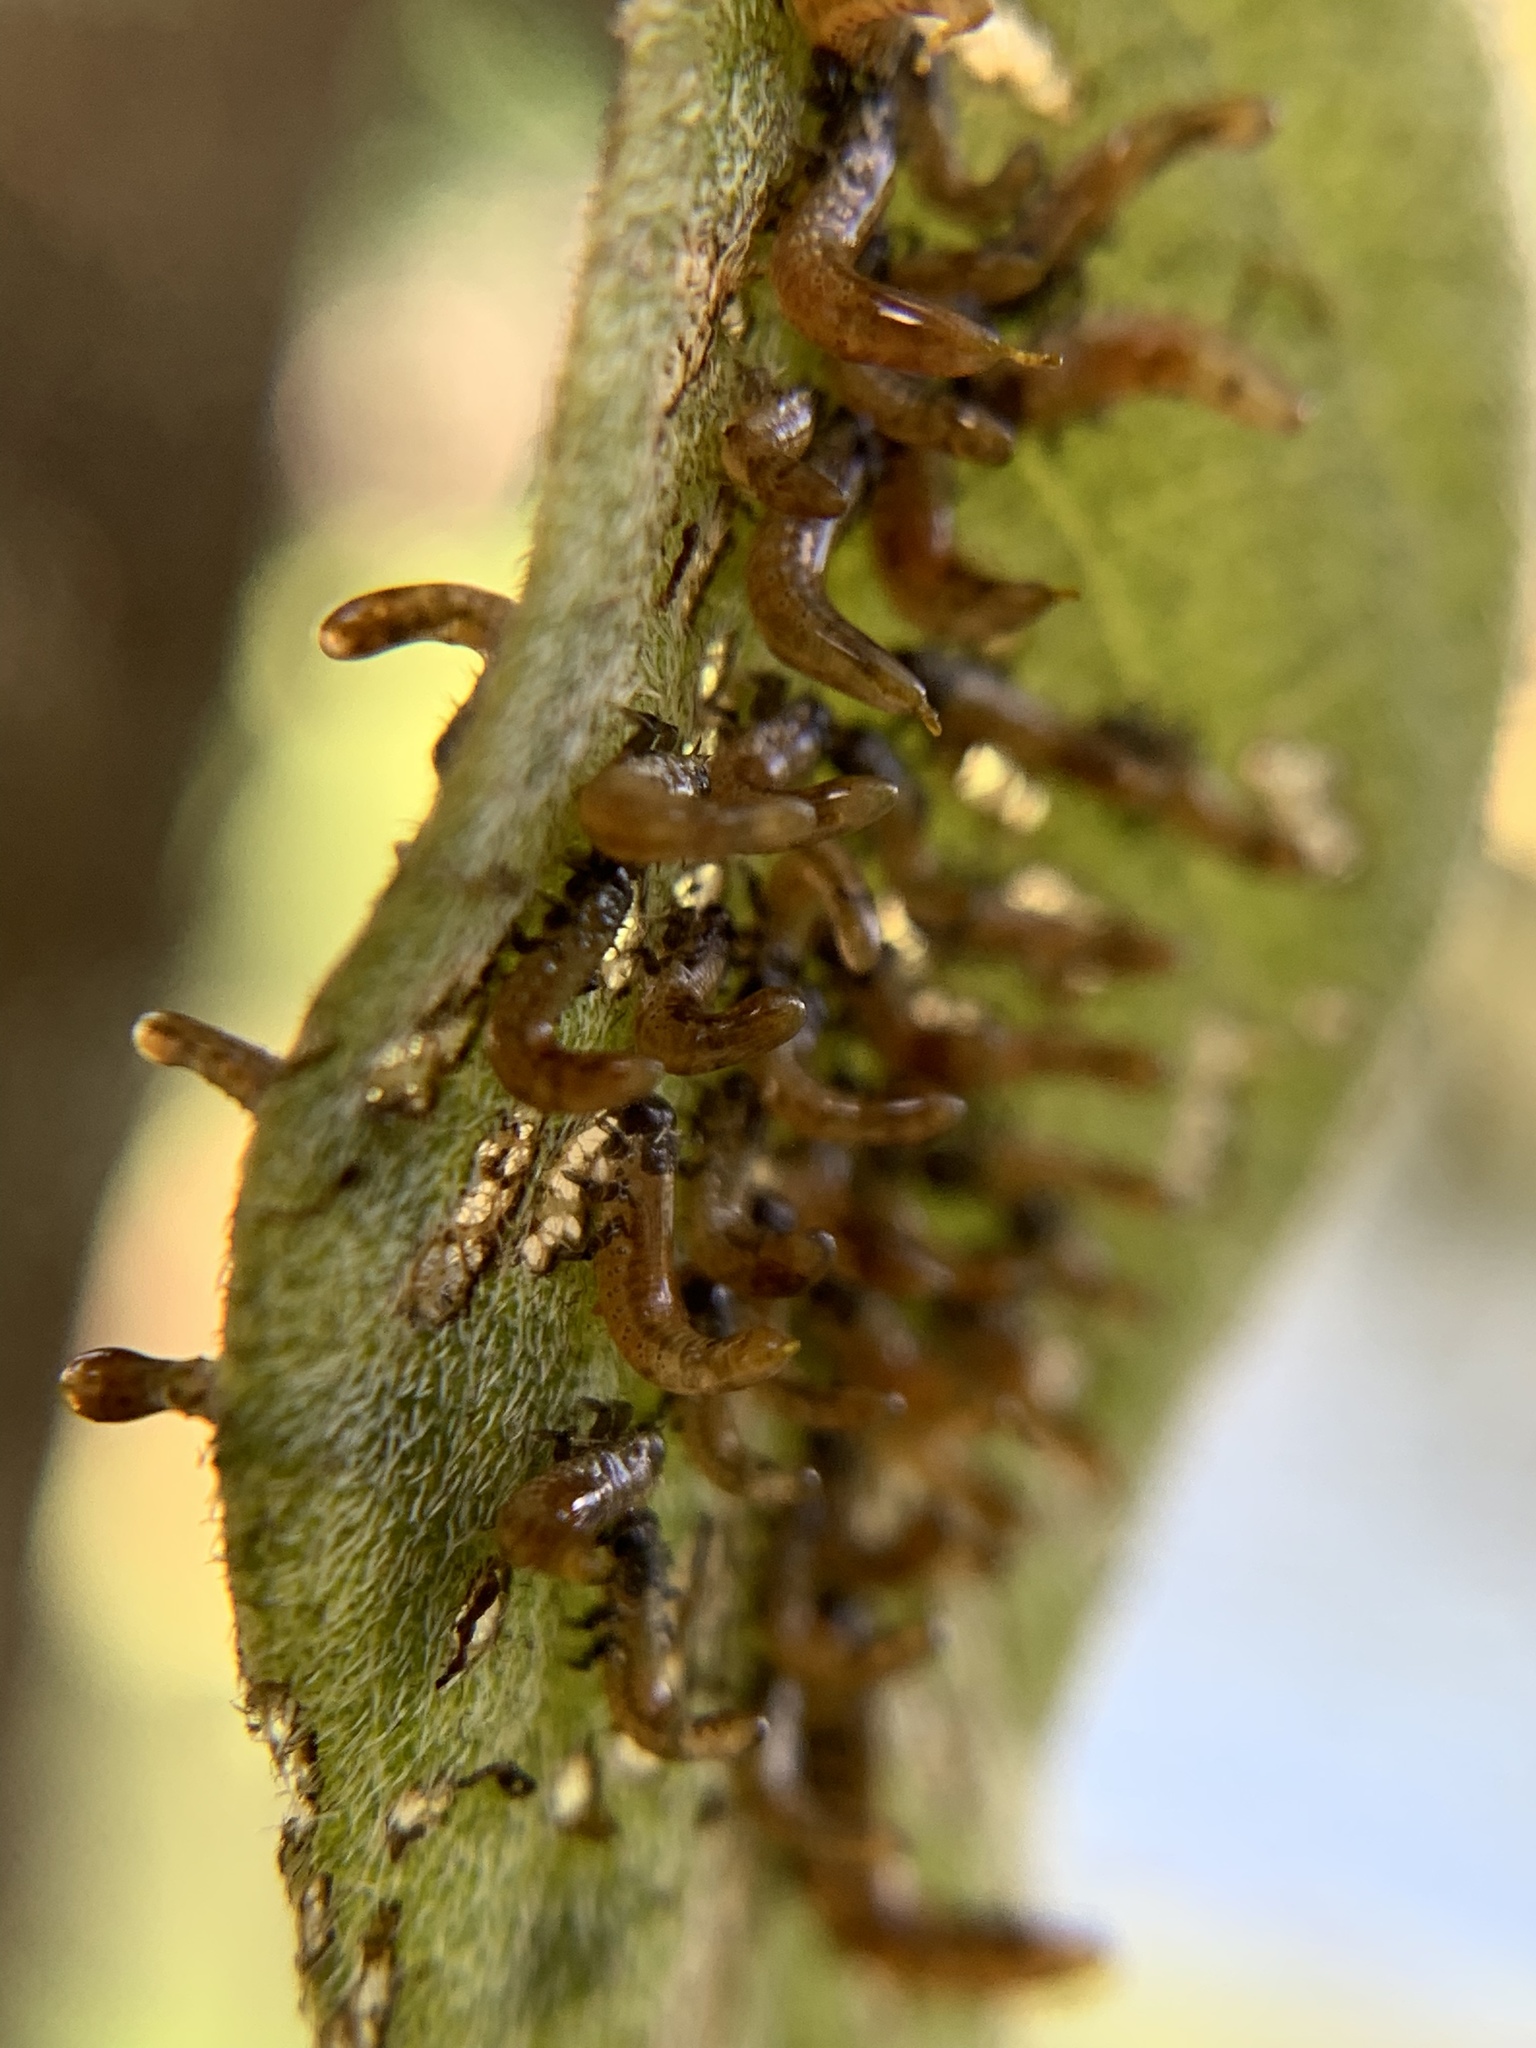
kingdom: Animalia
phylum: Arthropoda
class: Insecta
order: Coleoptera
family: Chrysomelidae
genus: Eurypepla
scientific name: Eurypepla calochroma
